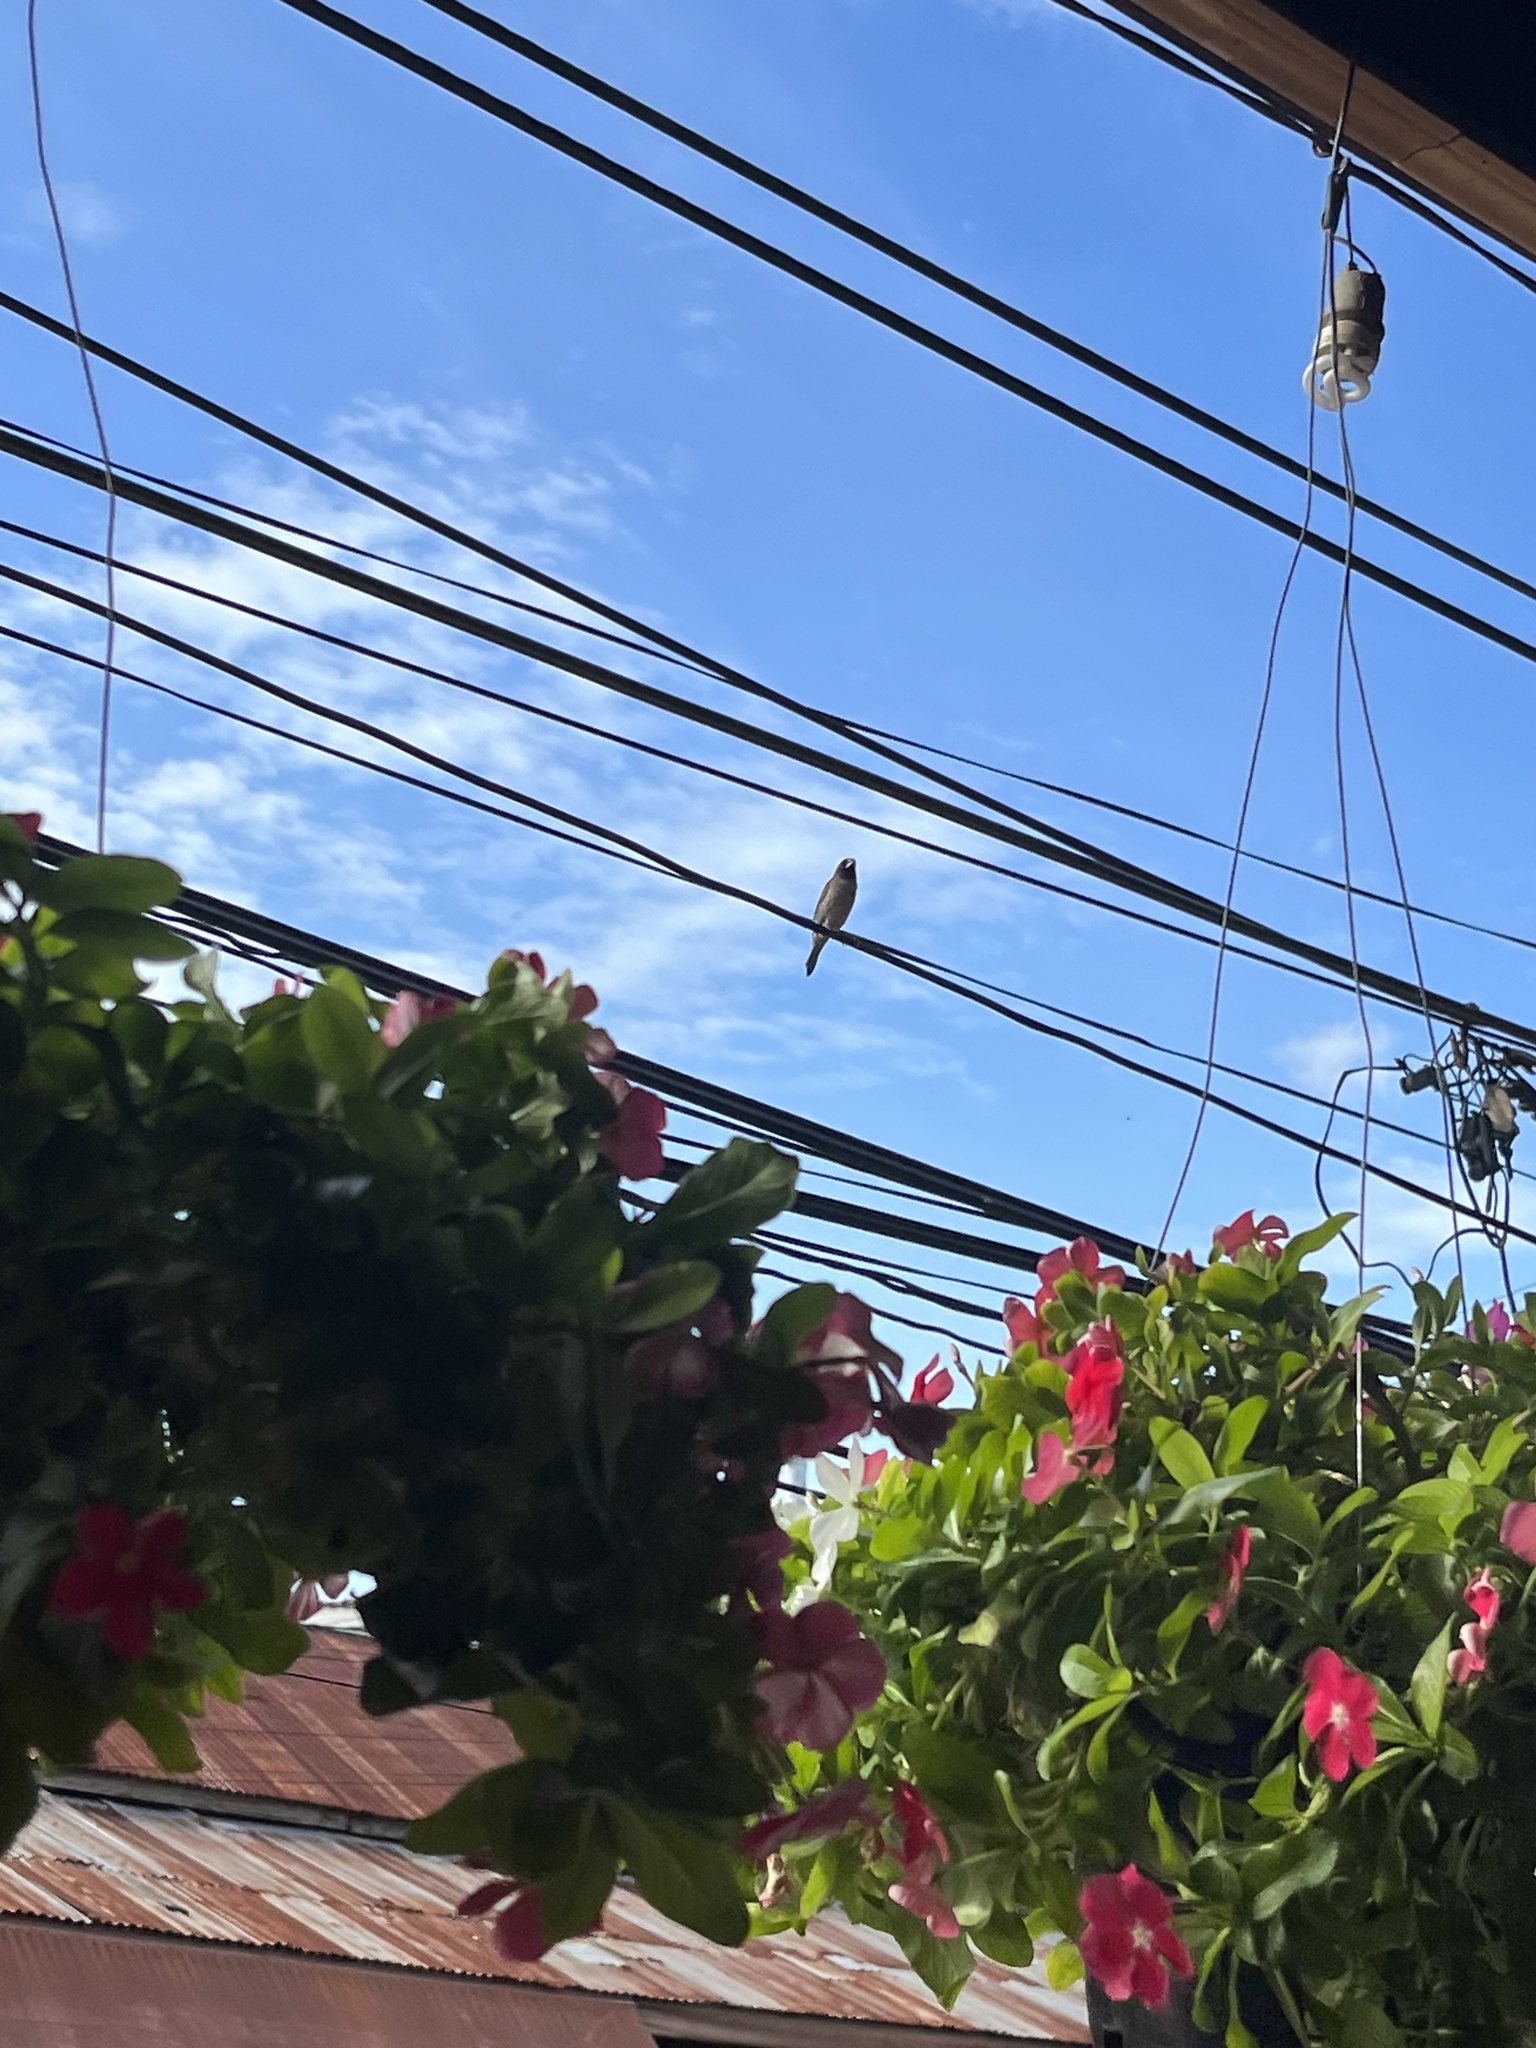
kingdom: Animalia
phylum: Chordata
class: Aves
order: Passeriformes
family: Estrildidae
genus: Lonchura
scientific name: Lonchura punctulata
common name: Scaly-breasted munia
